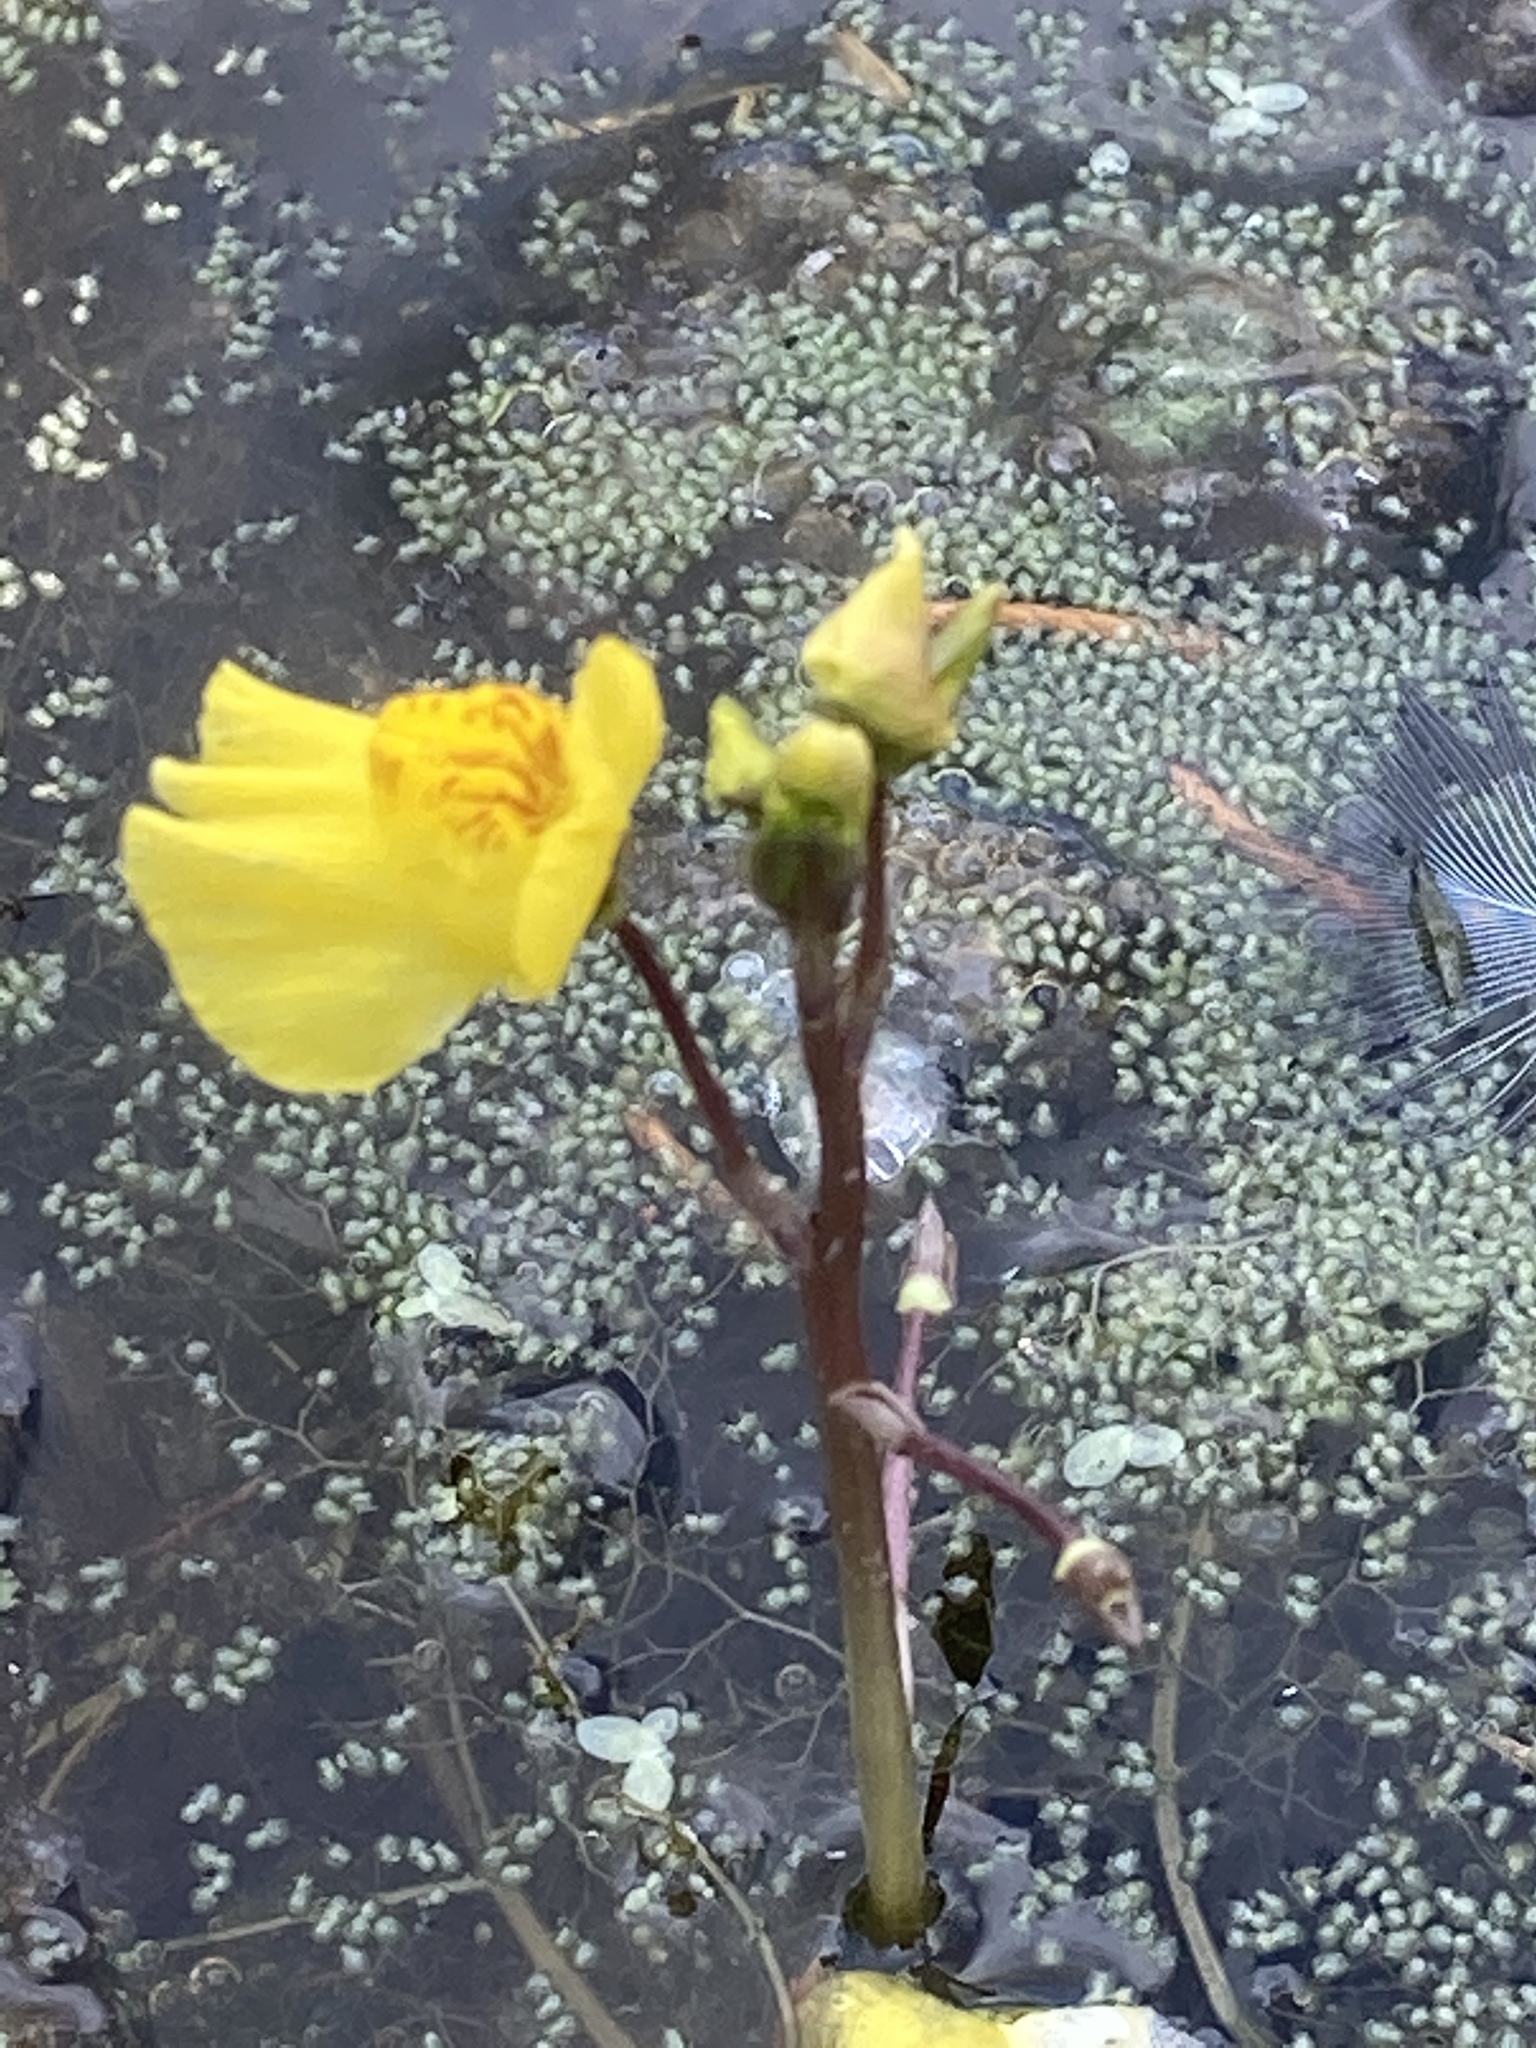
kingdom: Plantae
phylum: Tracheophyta
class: Magnoliopsida
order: Lamiales
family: Lentibulariaceae
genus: Utricularia
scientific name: Utricularia australis
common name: Bladderwort
